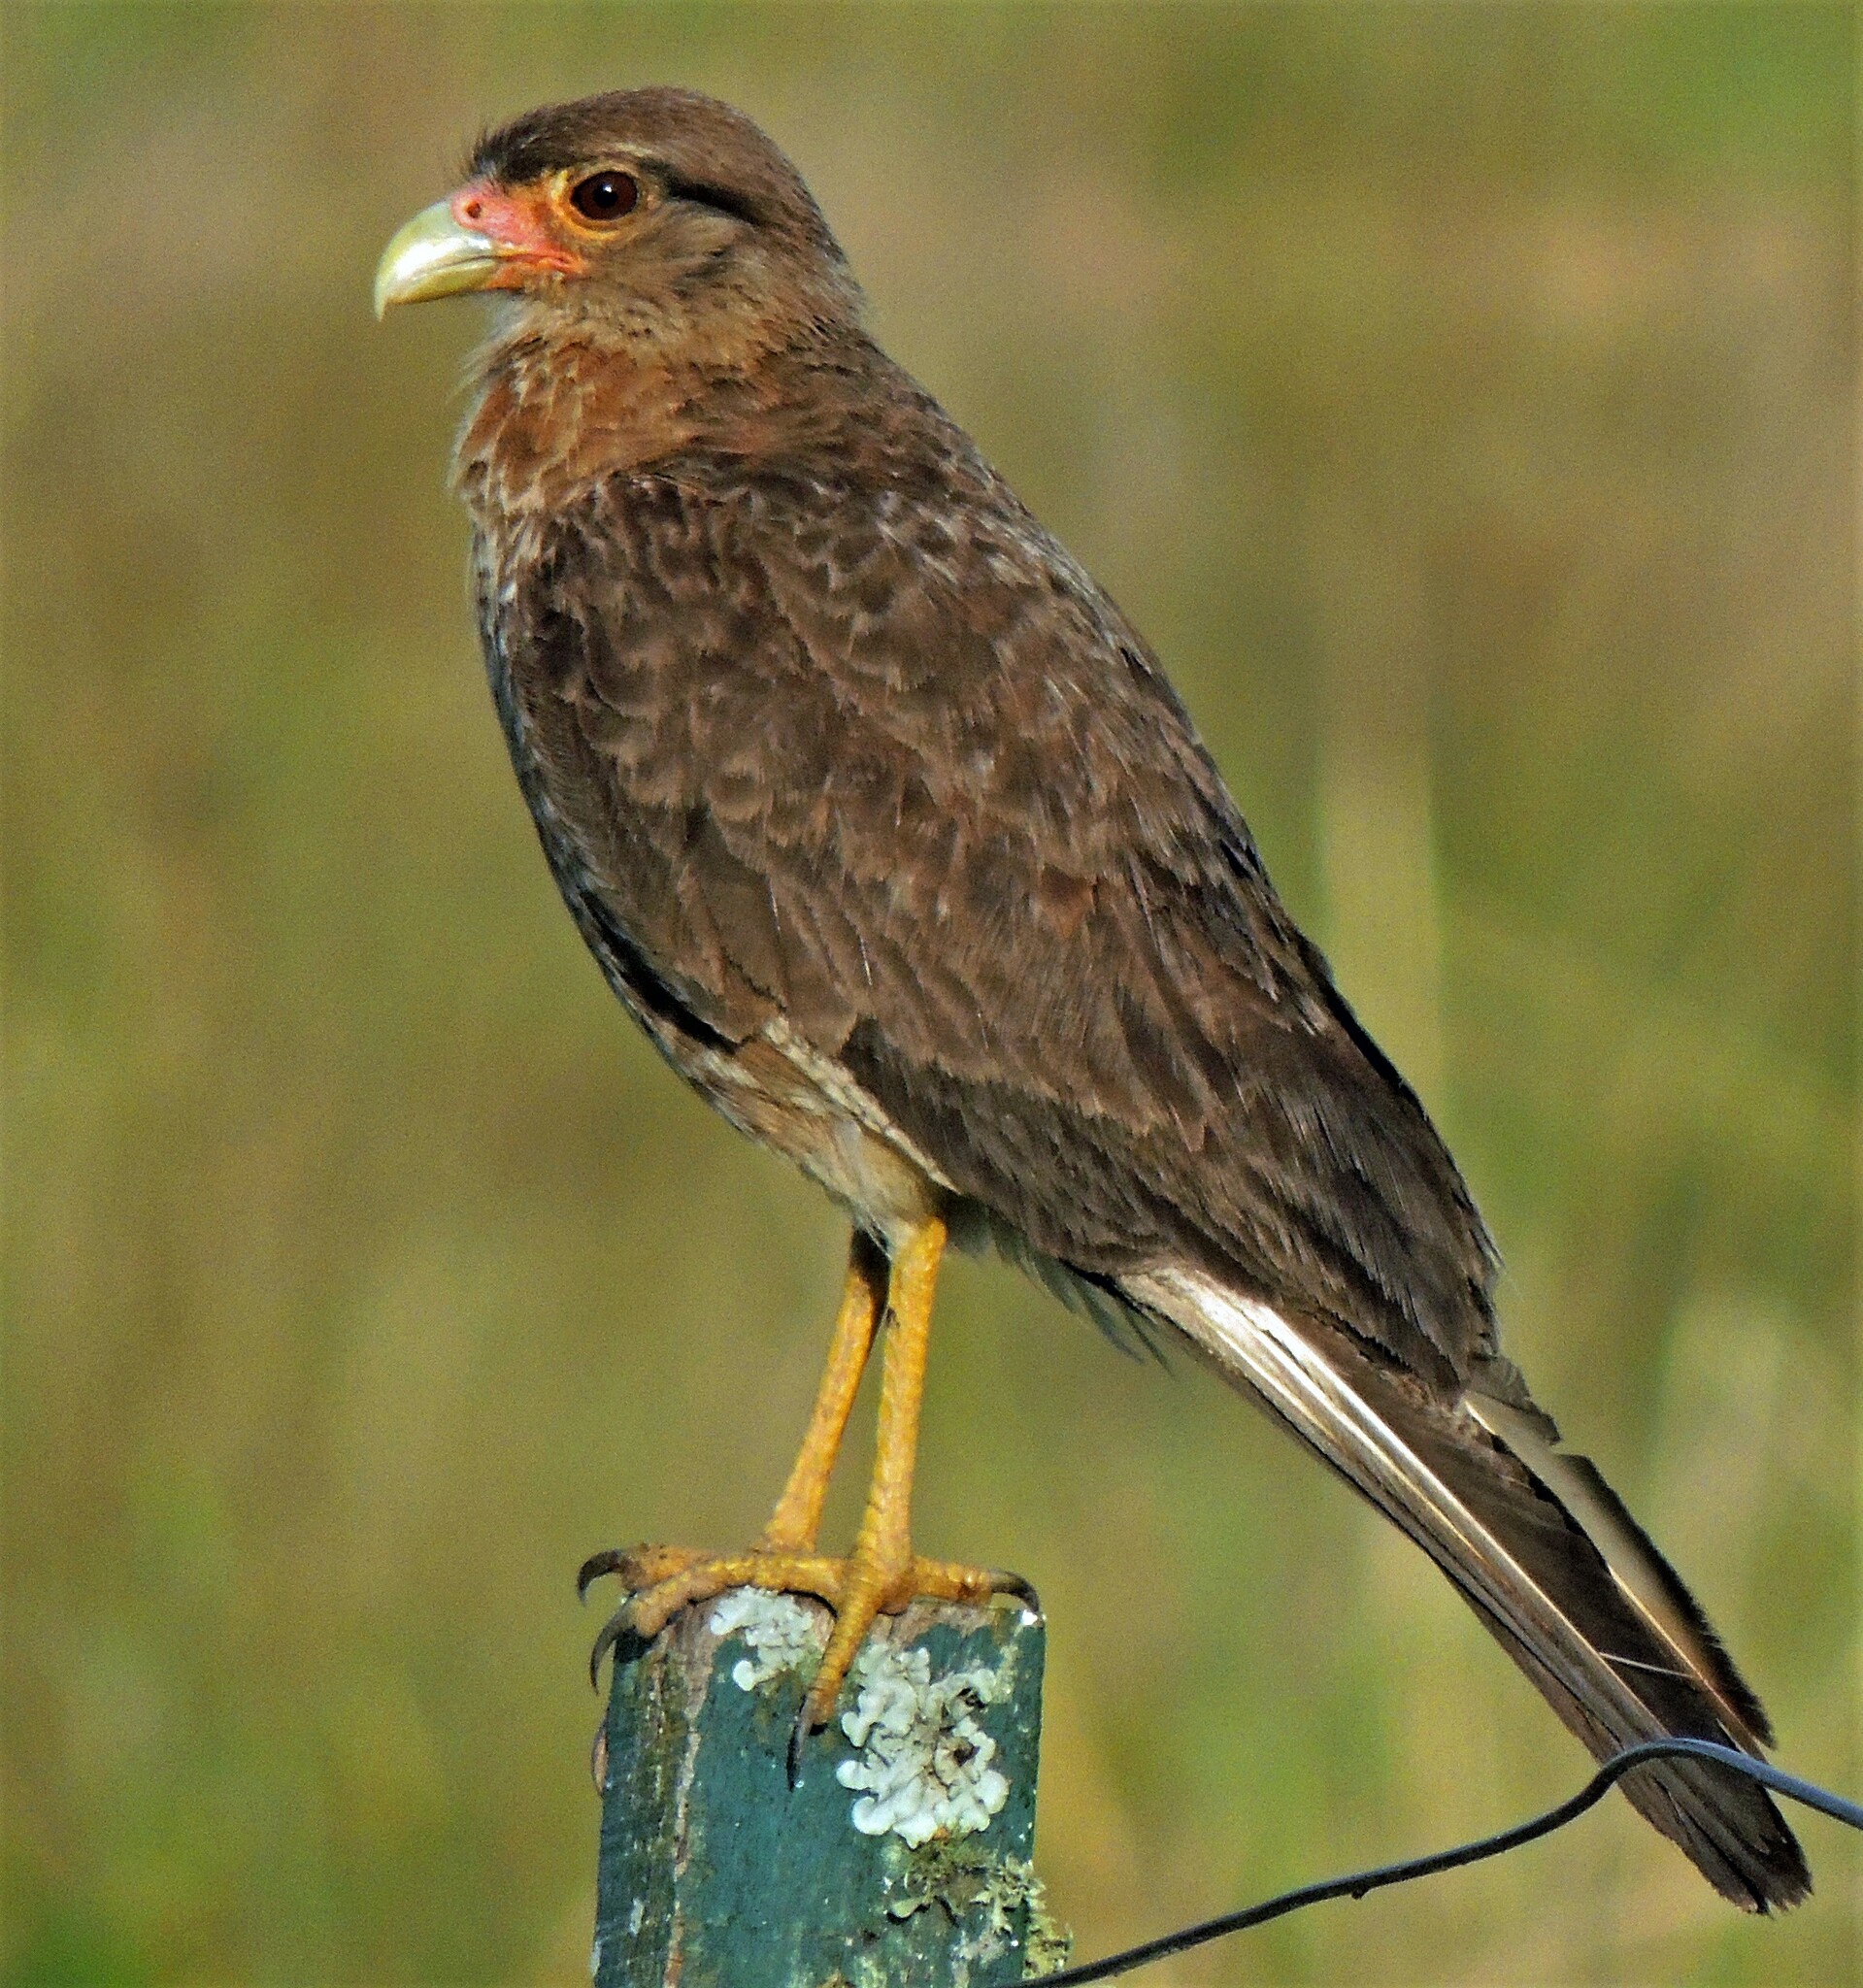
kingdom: Animalia
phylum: Chordata
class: Aves
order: Falconiformes
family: Falconidae
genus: Daptrius
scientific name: Daptrius
